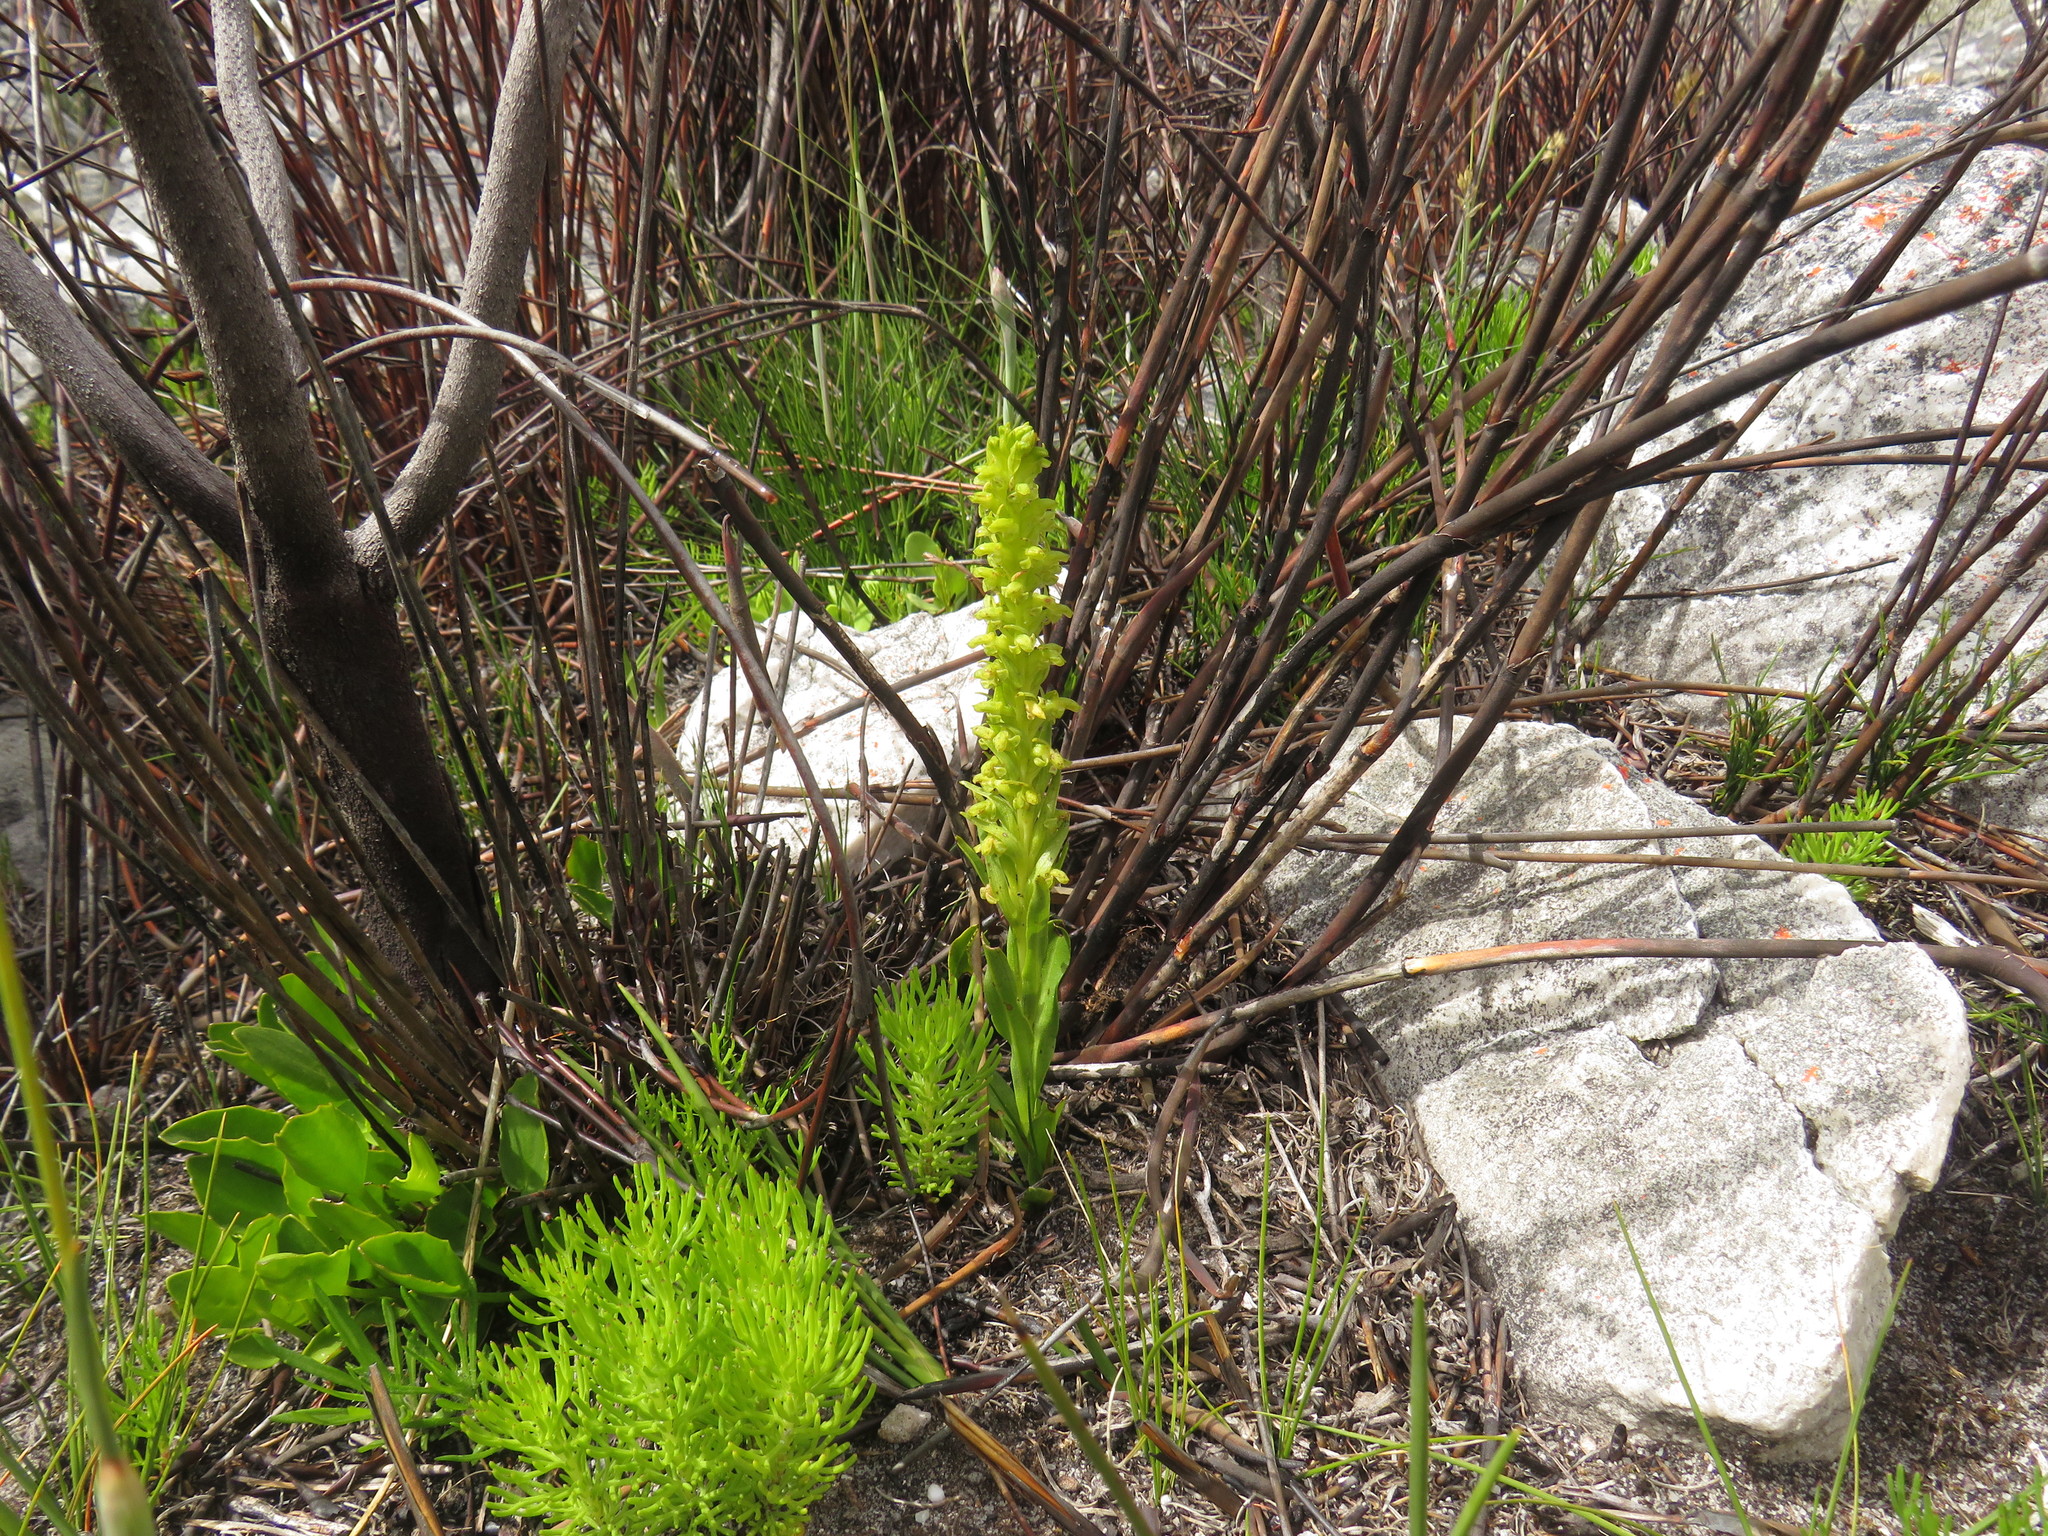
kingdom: Plantae
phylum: Tracheophyta
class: Liliopsida
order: Asparagales
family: Orchidaceae
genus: Disa
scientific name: Disa cylindrica
